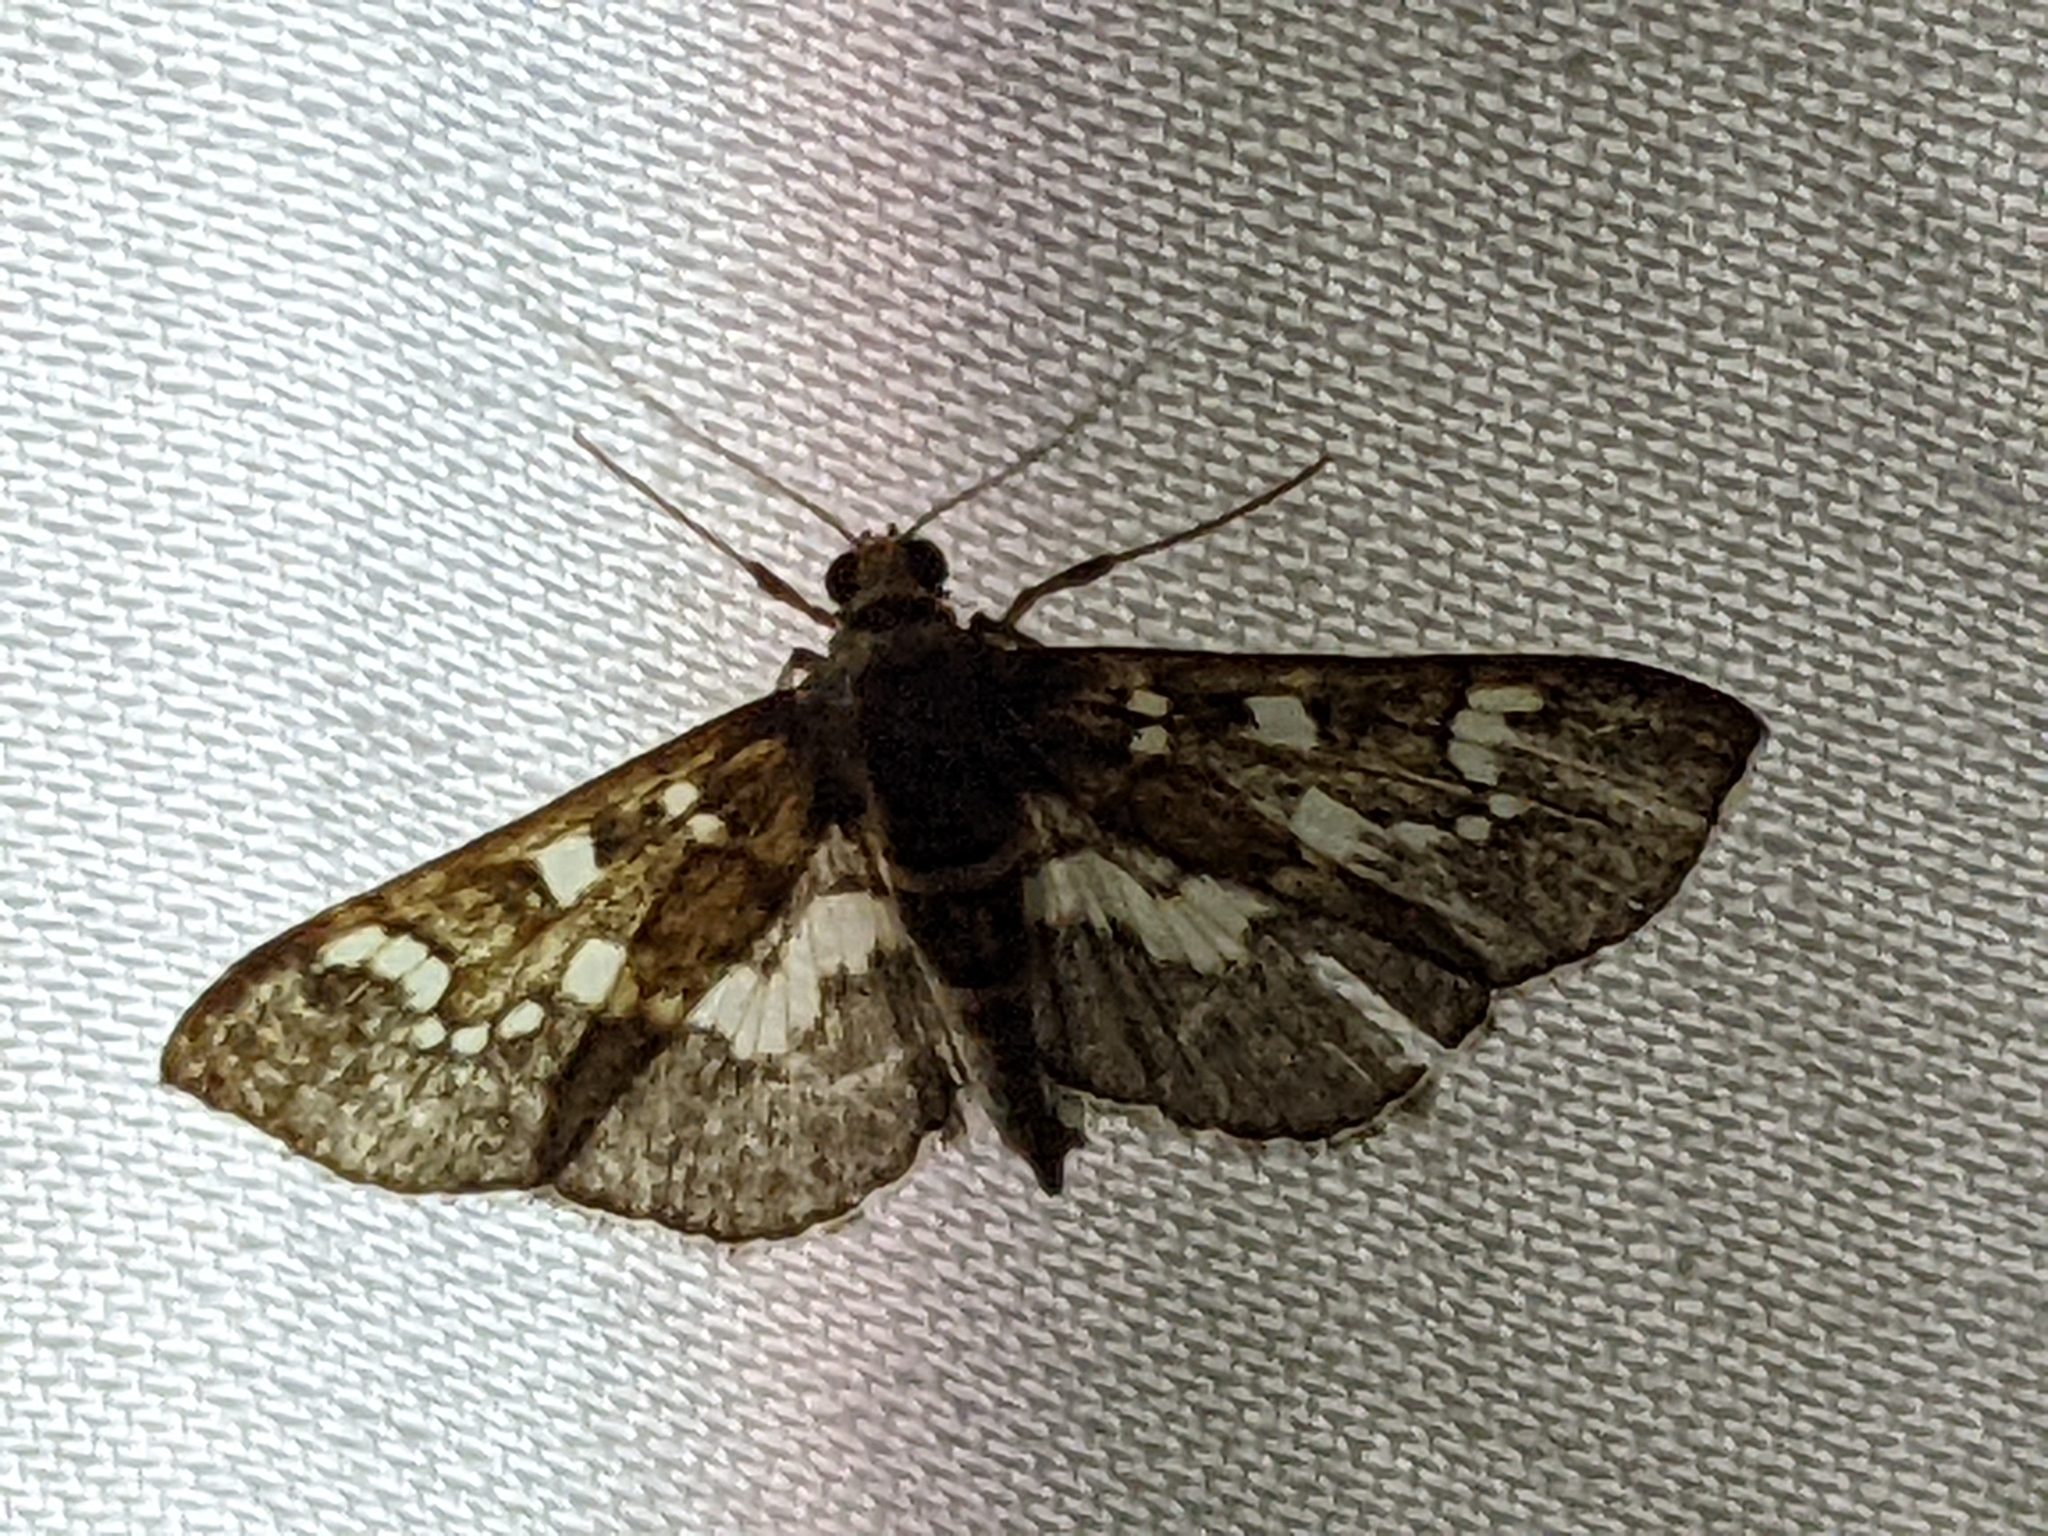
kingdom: Animalia
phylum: Arthropoda
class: Insecta
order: Lepidoptera
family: Crambidae
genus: Syllepte
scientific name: Syllepte nasonalis
